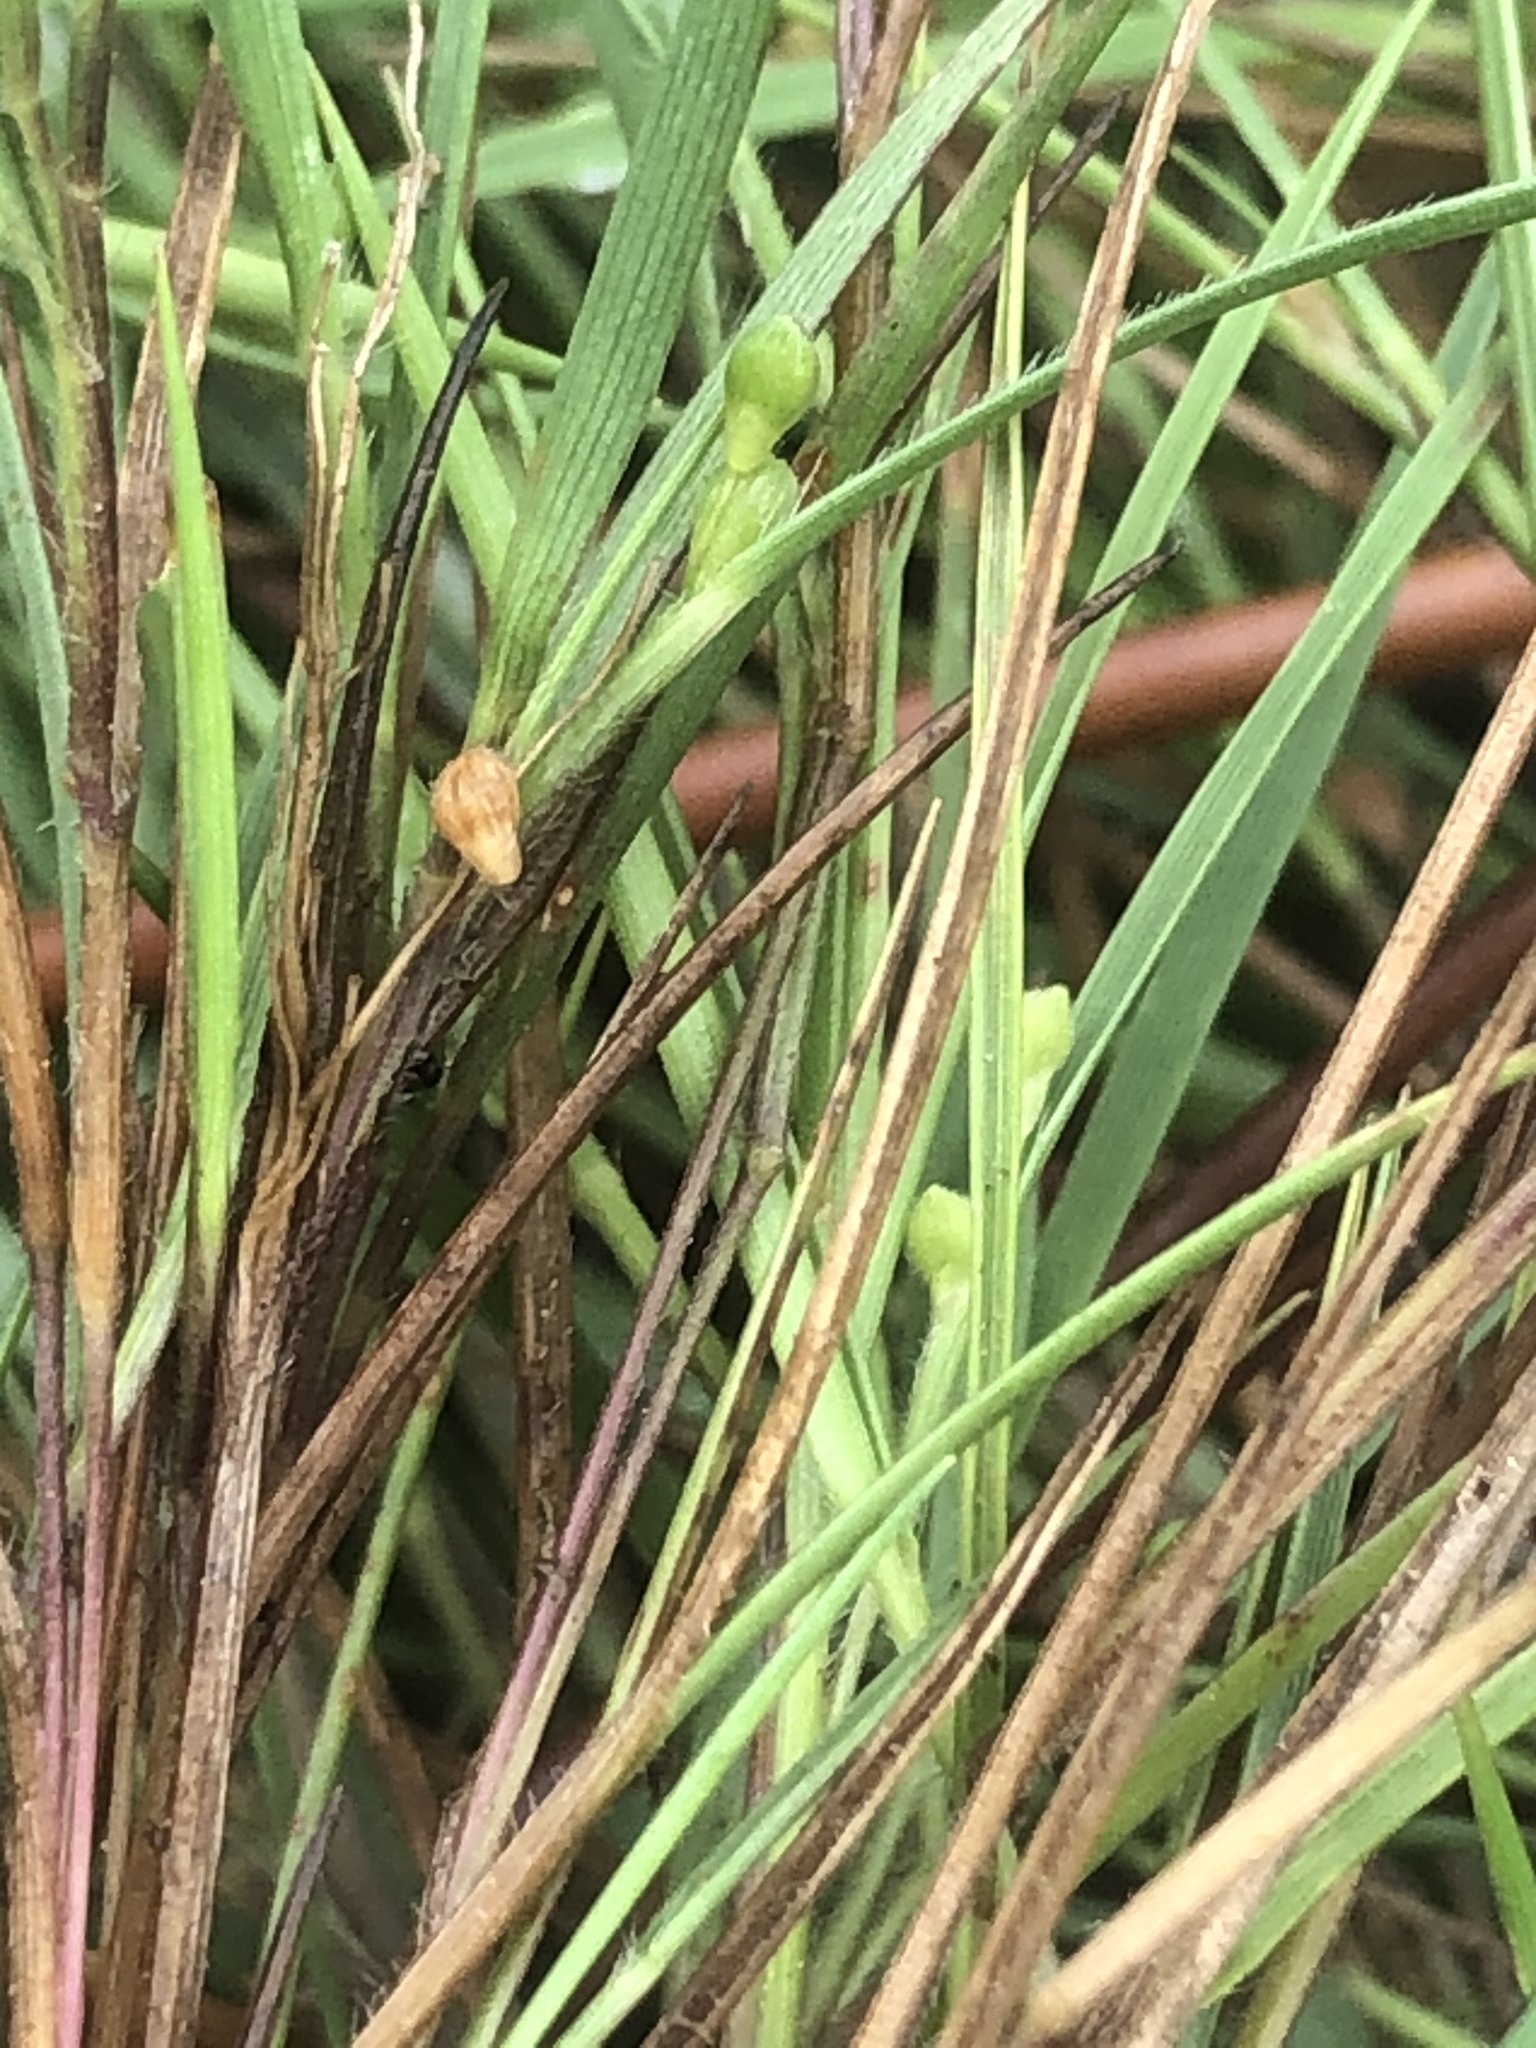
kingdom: Plantae
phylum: Tracheophyta
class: Liliopsida
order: Poales
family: Poaceae
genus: Dichanthelium
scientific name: Dichanthelium aciculare
